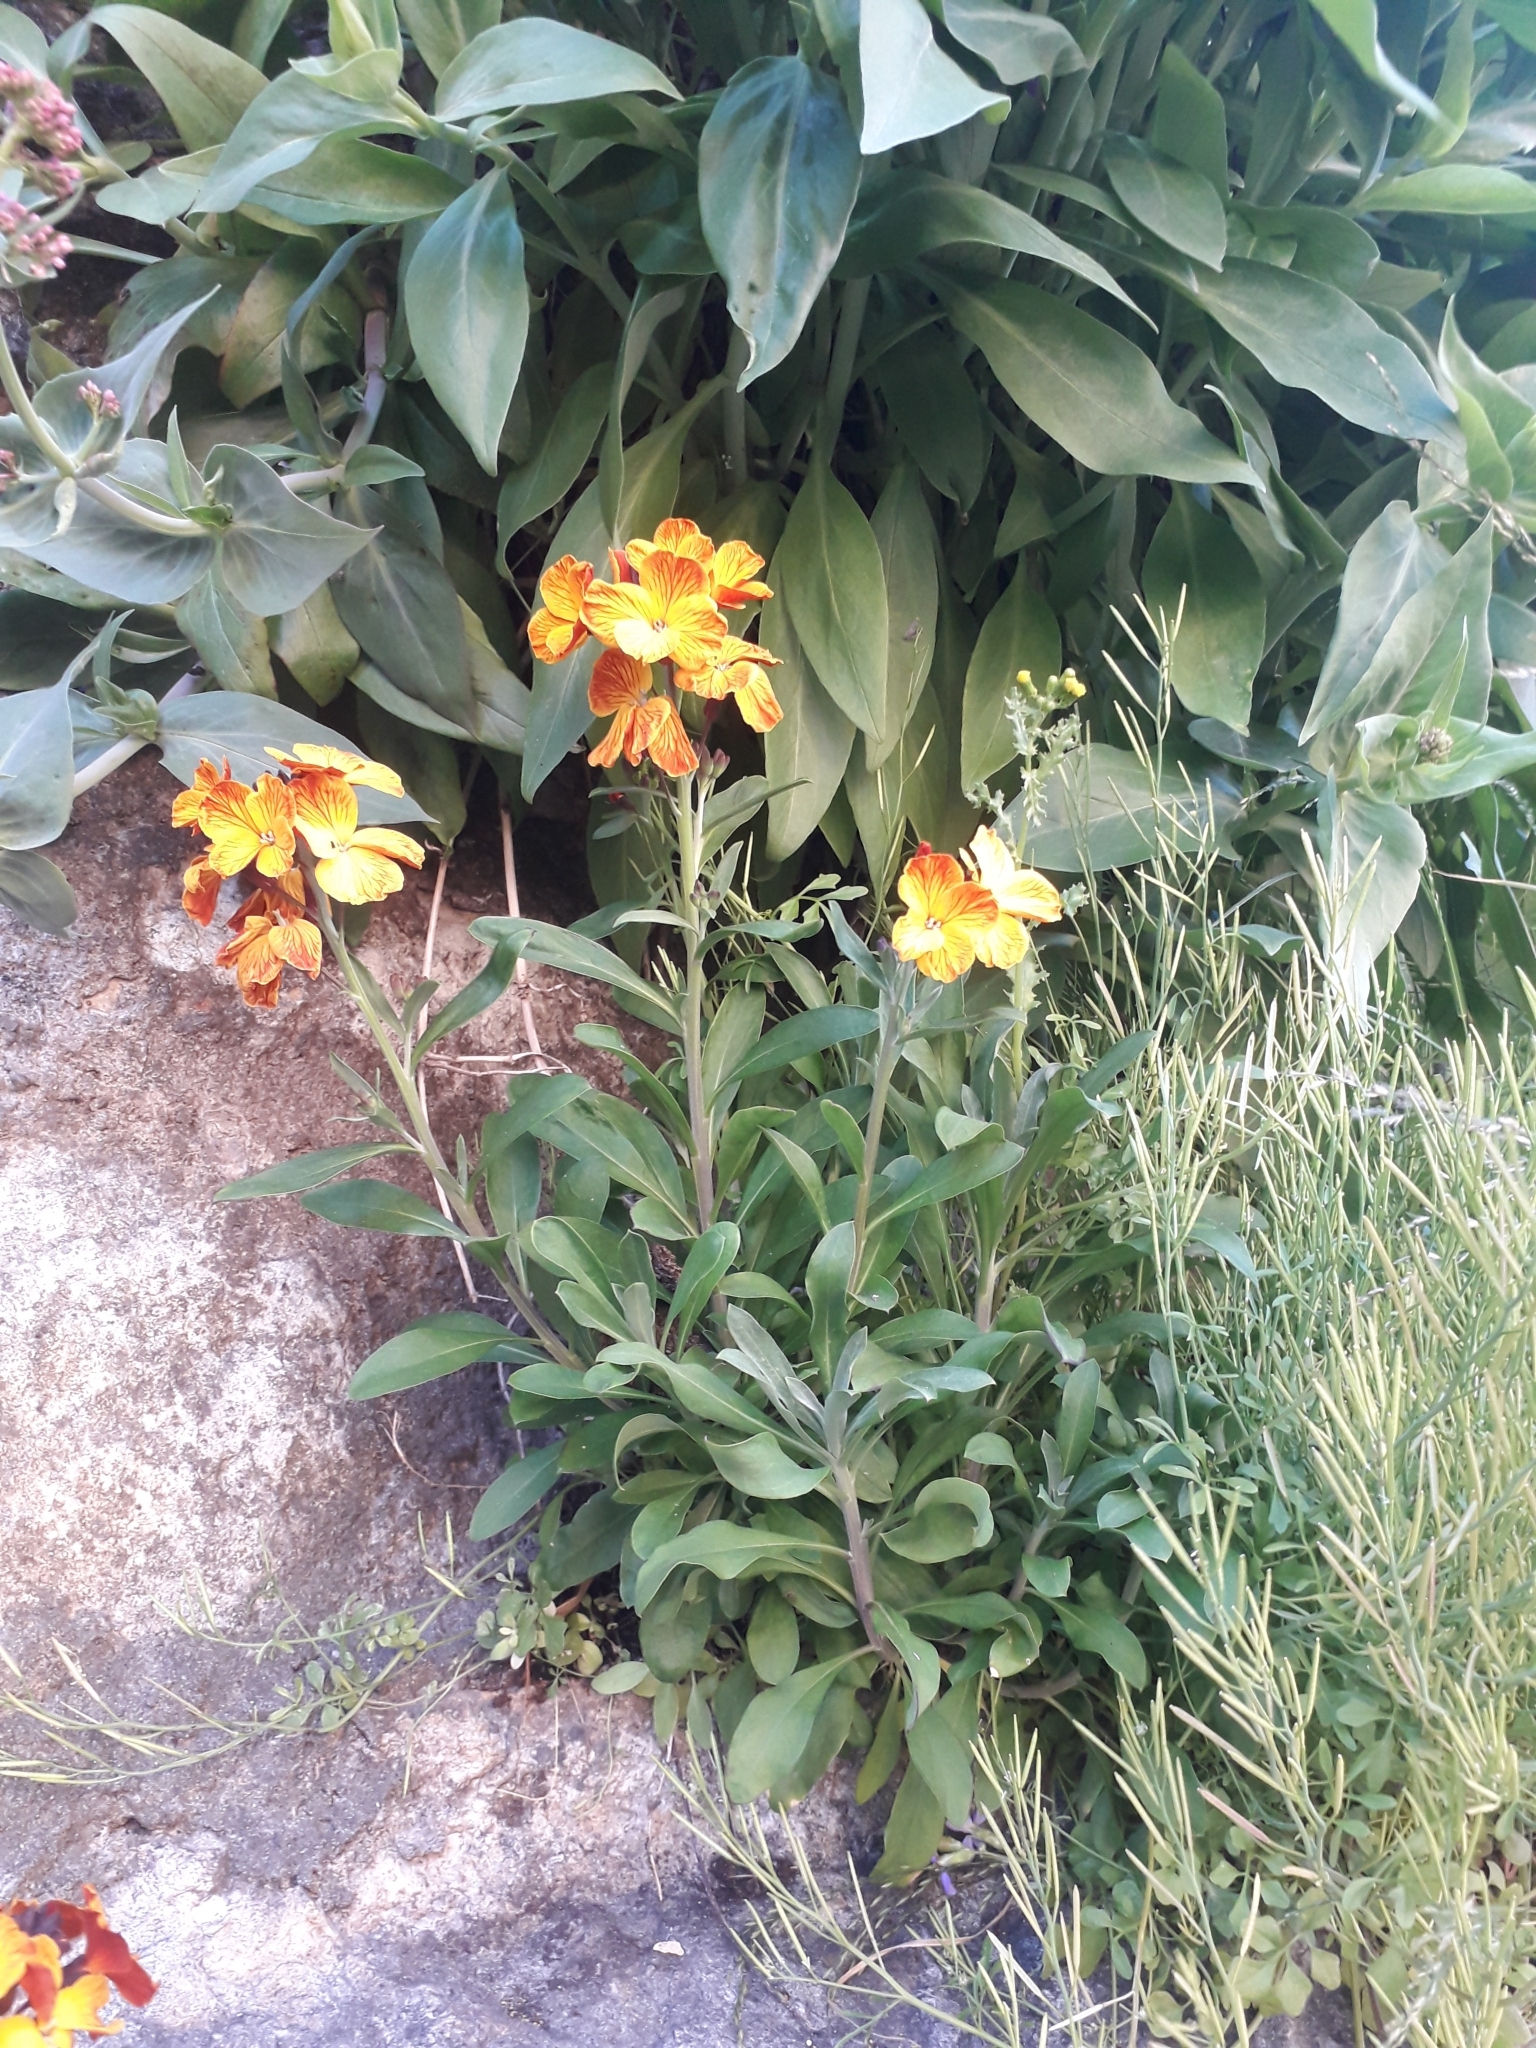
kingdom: Plantae
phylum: Tracheophyta
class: Magnoliopsida
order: Brassicales
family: Brassicaceae
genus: Erysimum
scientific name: Erysimum cheiri
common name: Wallflower
